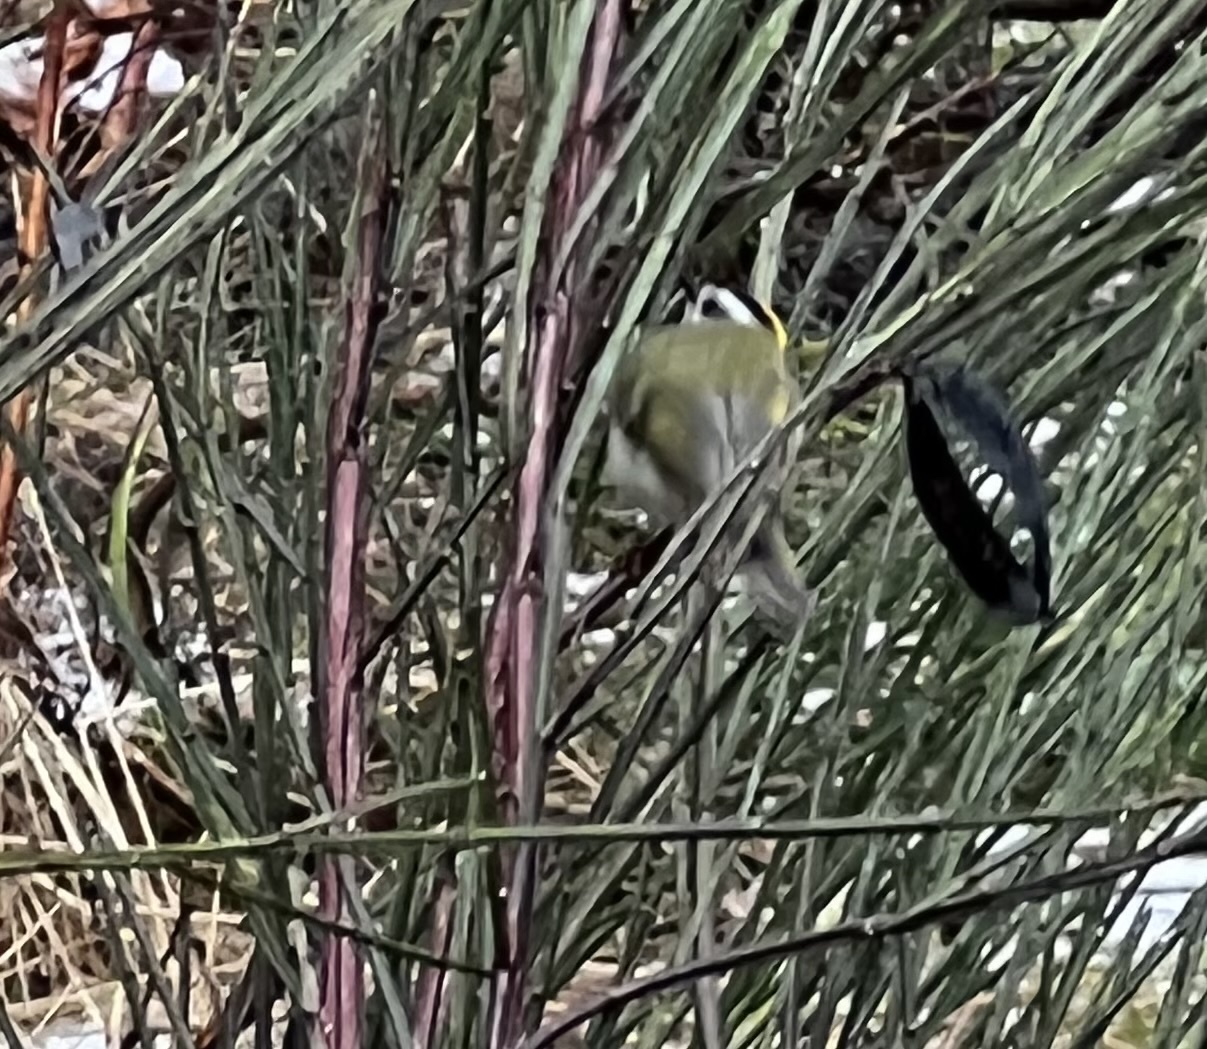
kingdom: Animalia
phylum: Chordata
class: Aves
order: Passeriformes
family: Regulidae
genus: Regulus
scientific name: Regulus satrapa
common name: Golden-crowned kinglet
